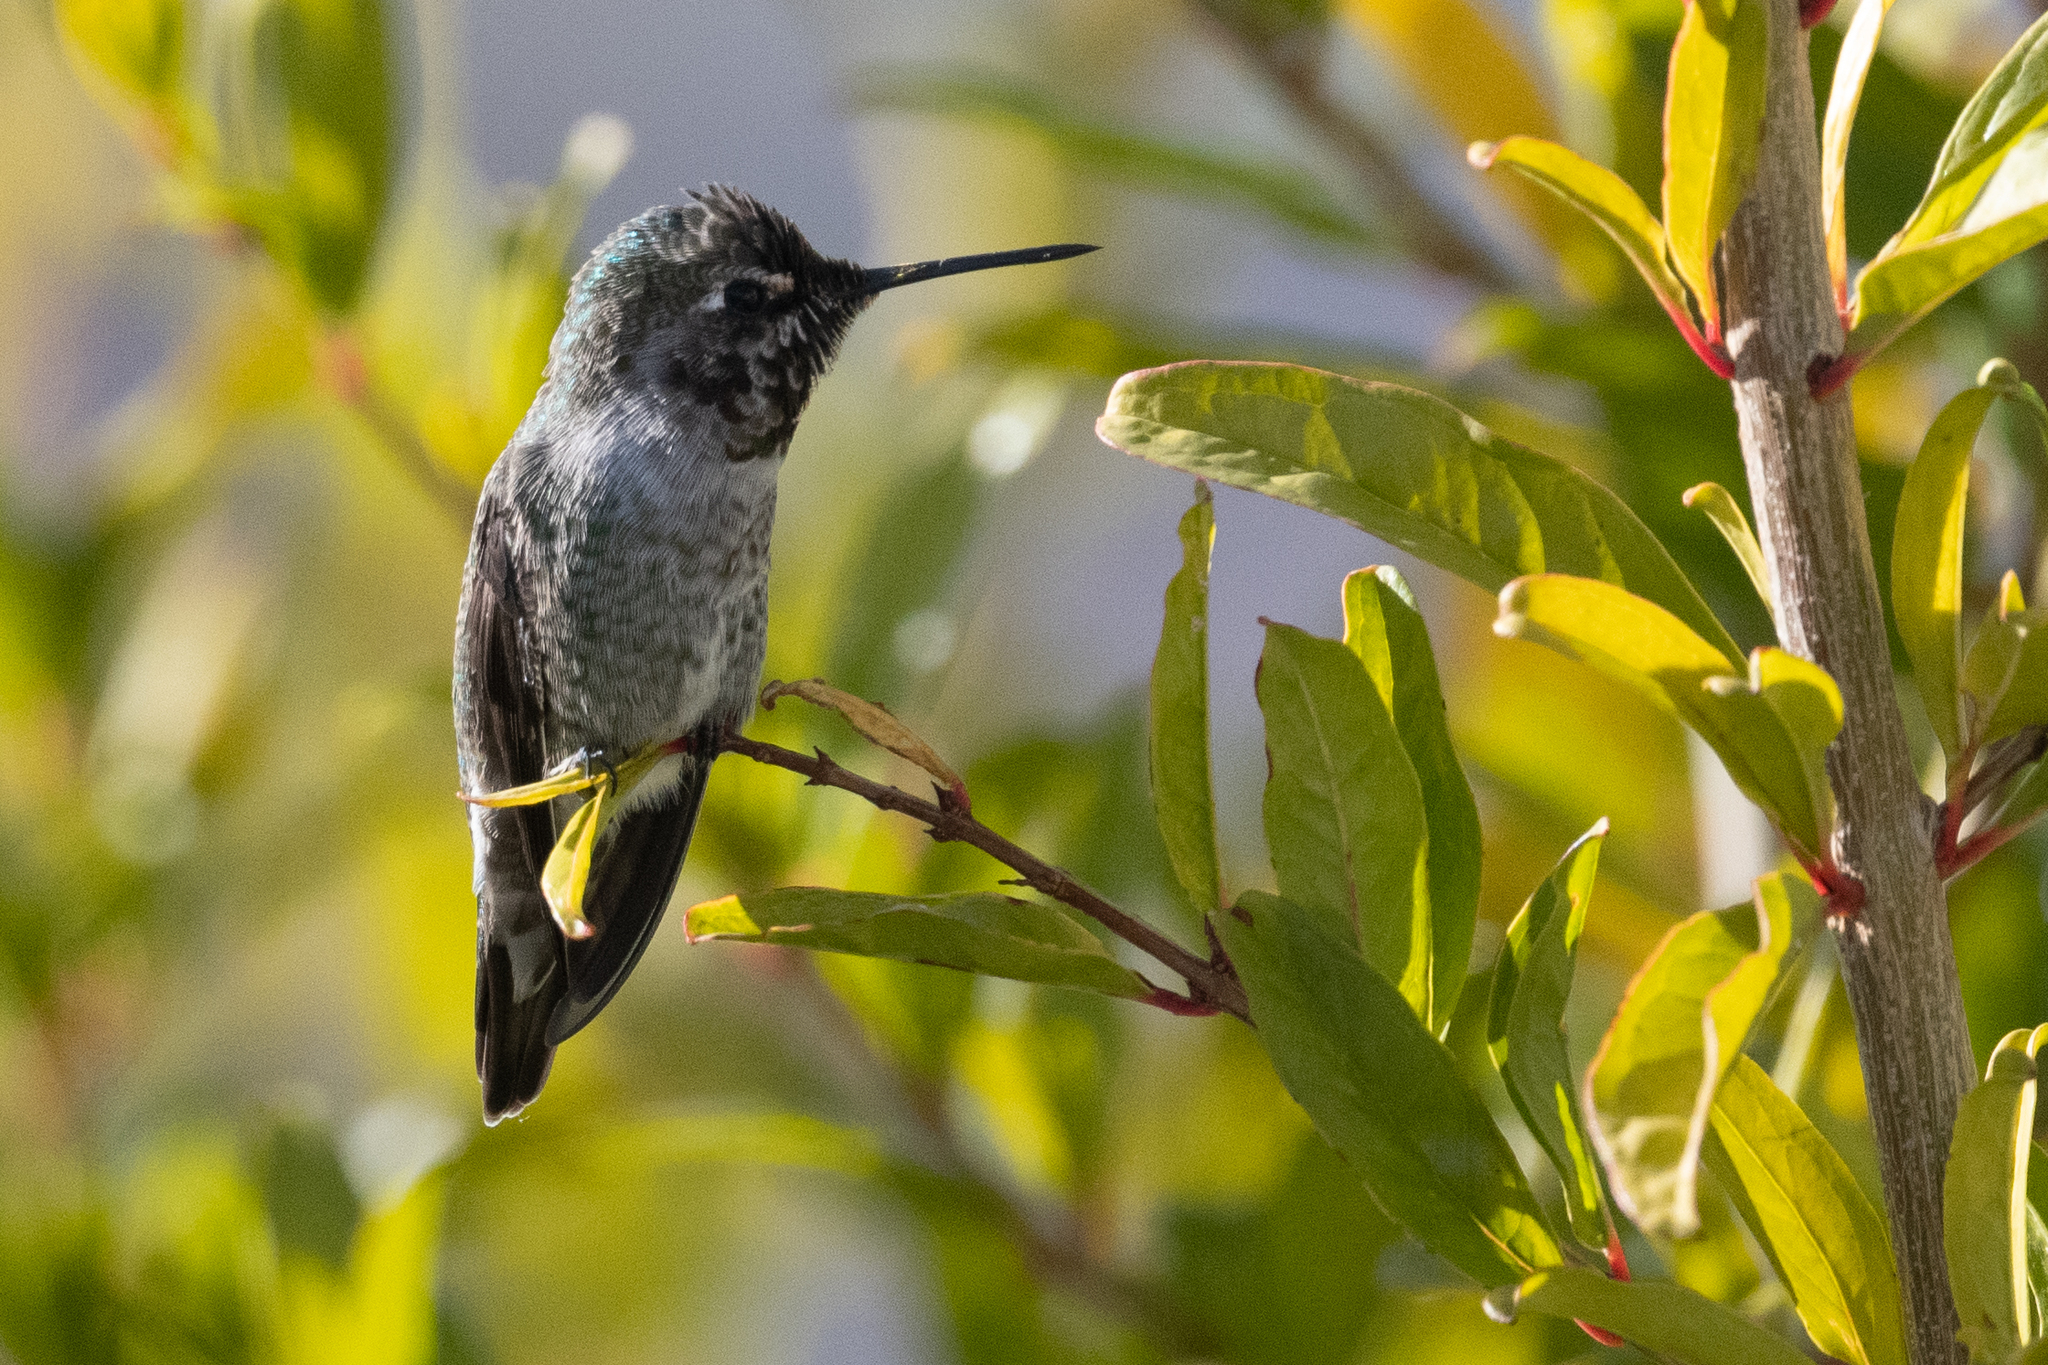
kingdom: Animalia
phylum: Chordata
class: Aves
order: Apodiformes
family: Trochilidae
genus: Calypte
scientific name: Calypte anna
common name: Anna's hummingbird
